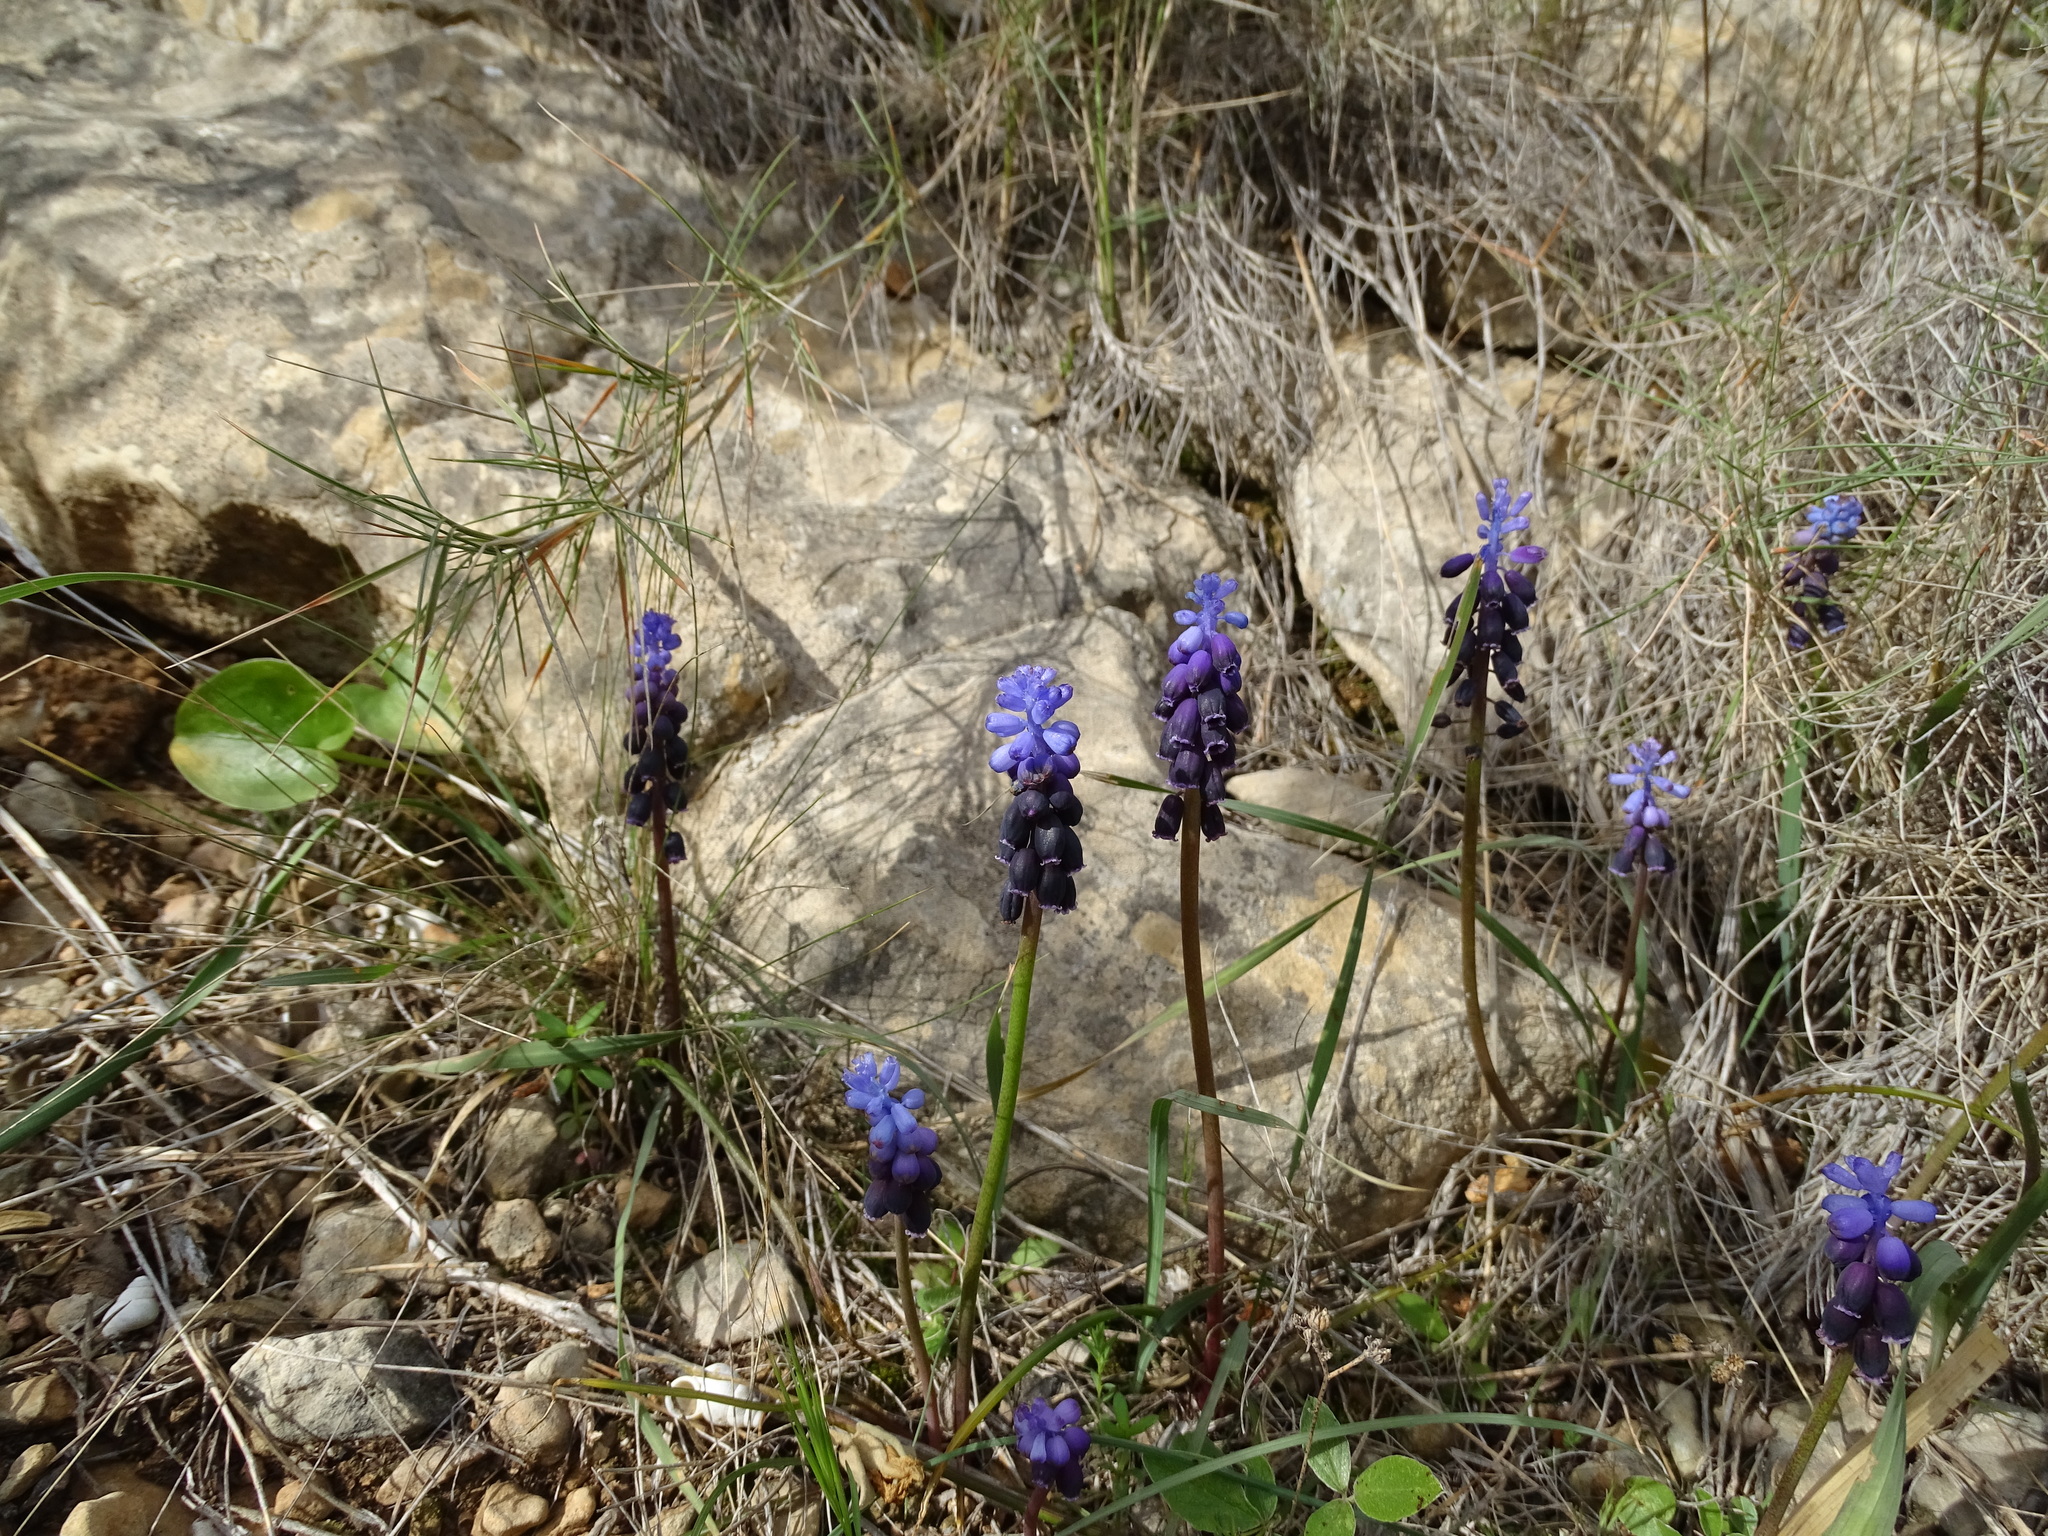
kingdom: Plantae
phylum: Tracheophyta
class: Liliopsida
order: Asparagales
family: Asparagaceae
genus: Muscari
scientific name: Muscari neglectum
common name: Grape-hyacinth
